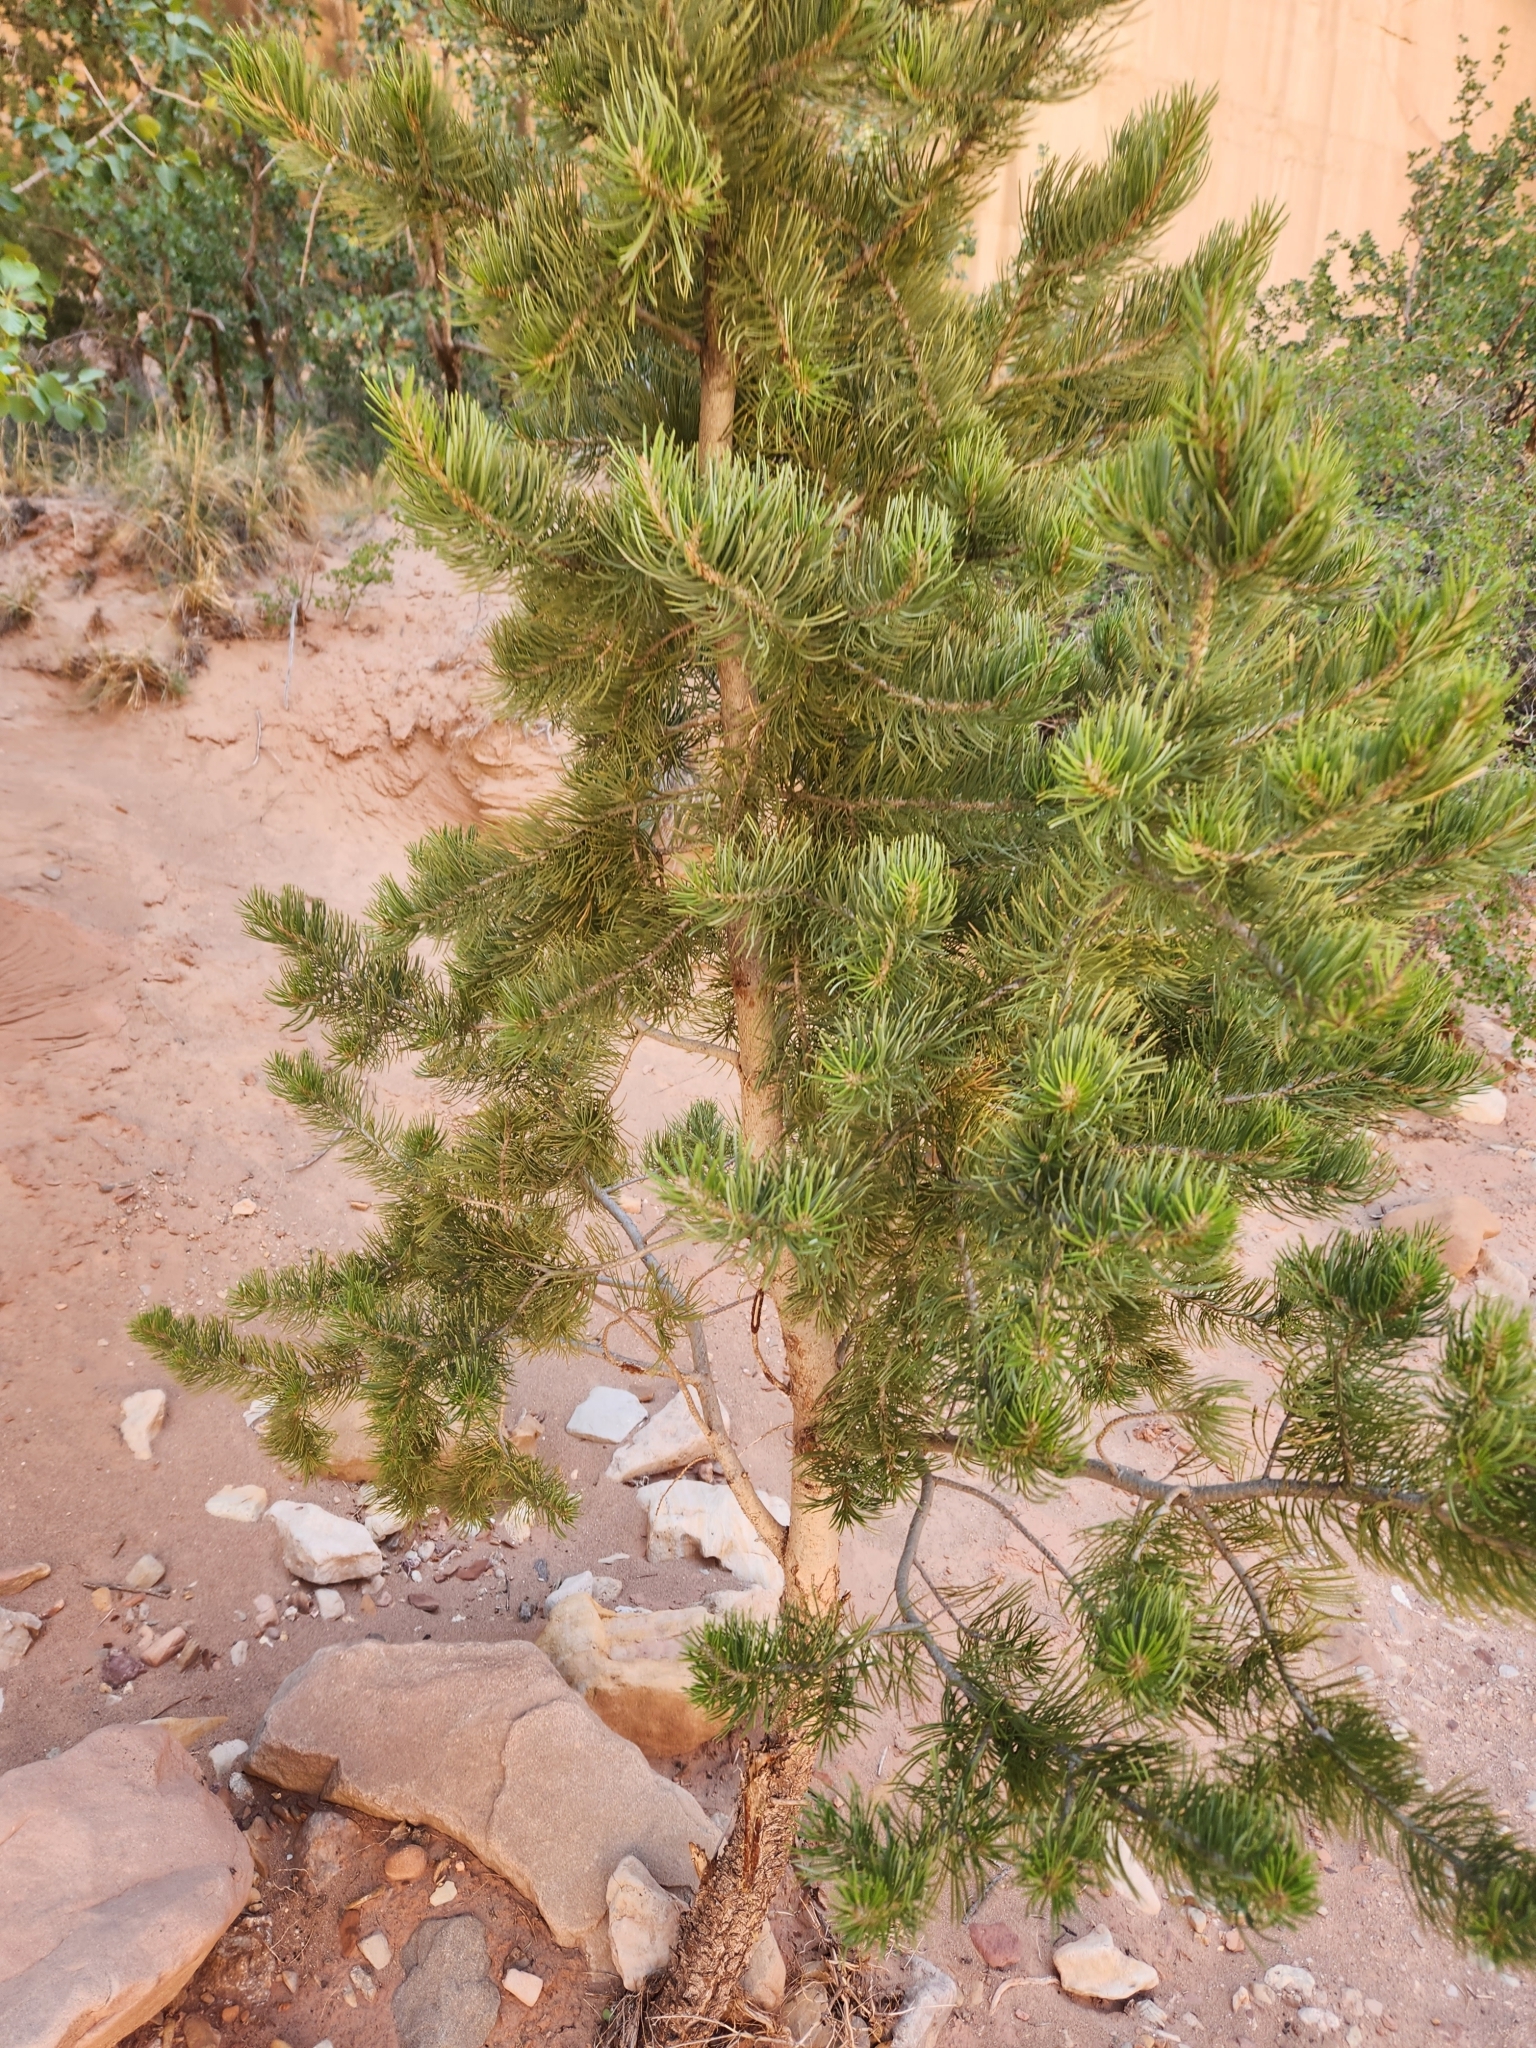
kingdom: Plantae
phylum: Tracheophyta
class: Pinopsida
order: Pinales
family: Pinaceae
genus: Pinus
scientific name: Pinus edulis
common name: Colorado pinyon
